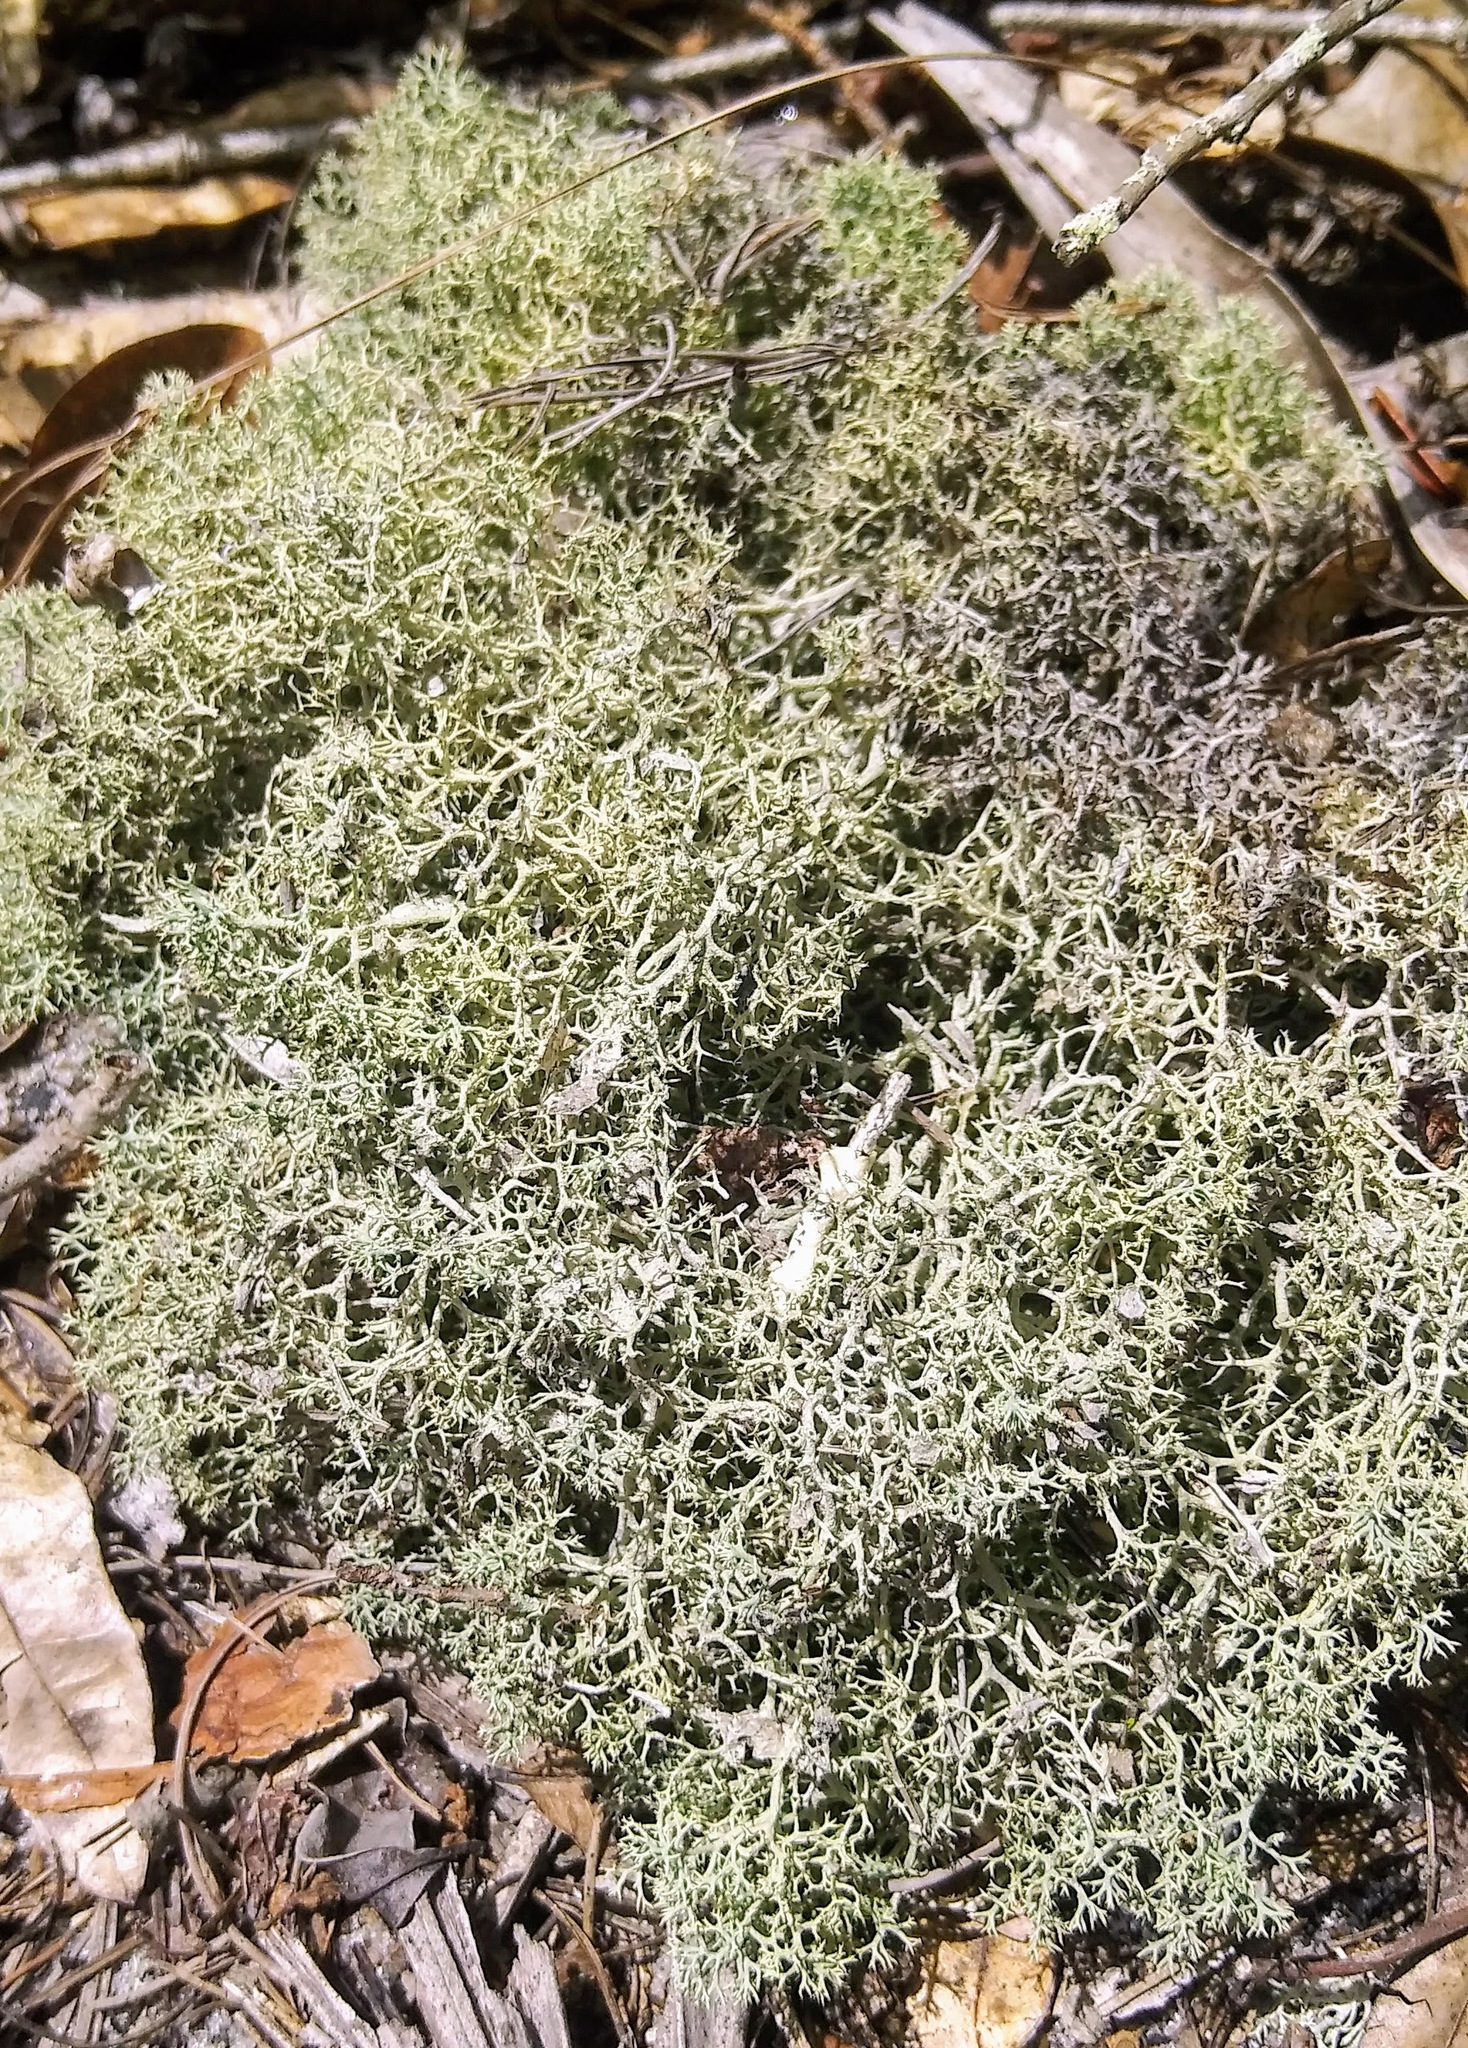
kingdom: Fungi
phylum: Ascomycota
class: Lecanoromycetes
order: Lecanorales
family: Cladoniaceae
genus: Cladonia
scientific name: Cladonia subtenuis
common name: Dixie reindeer lichen
